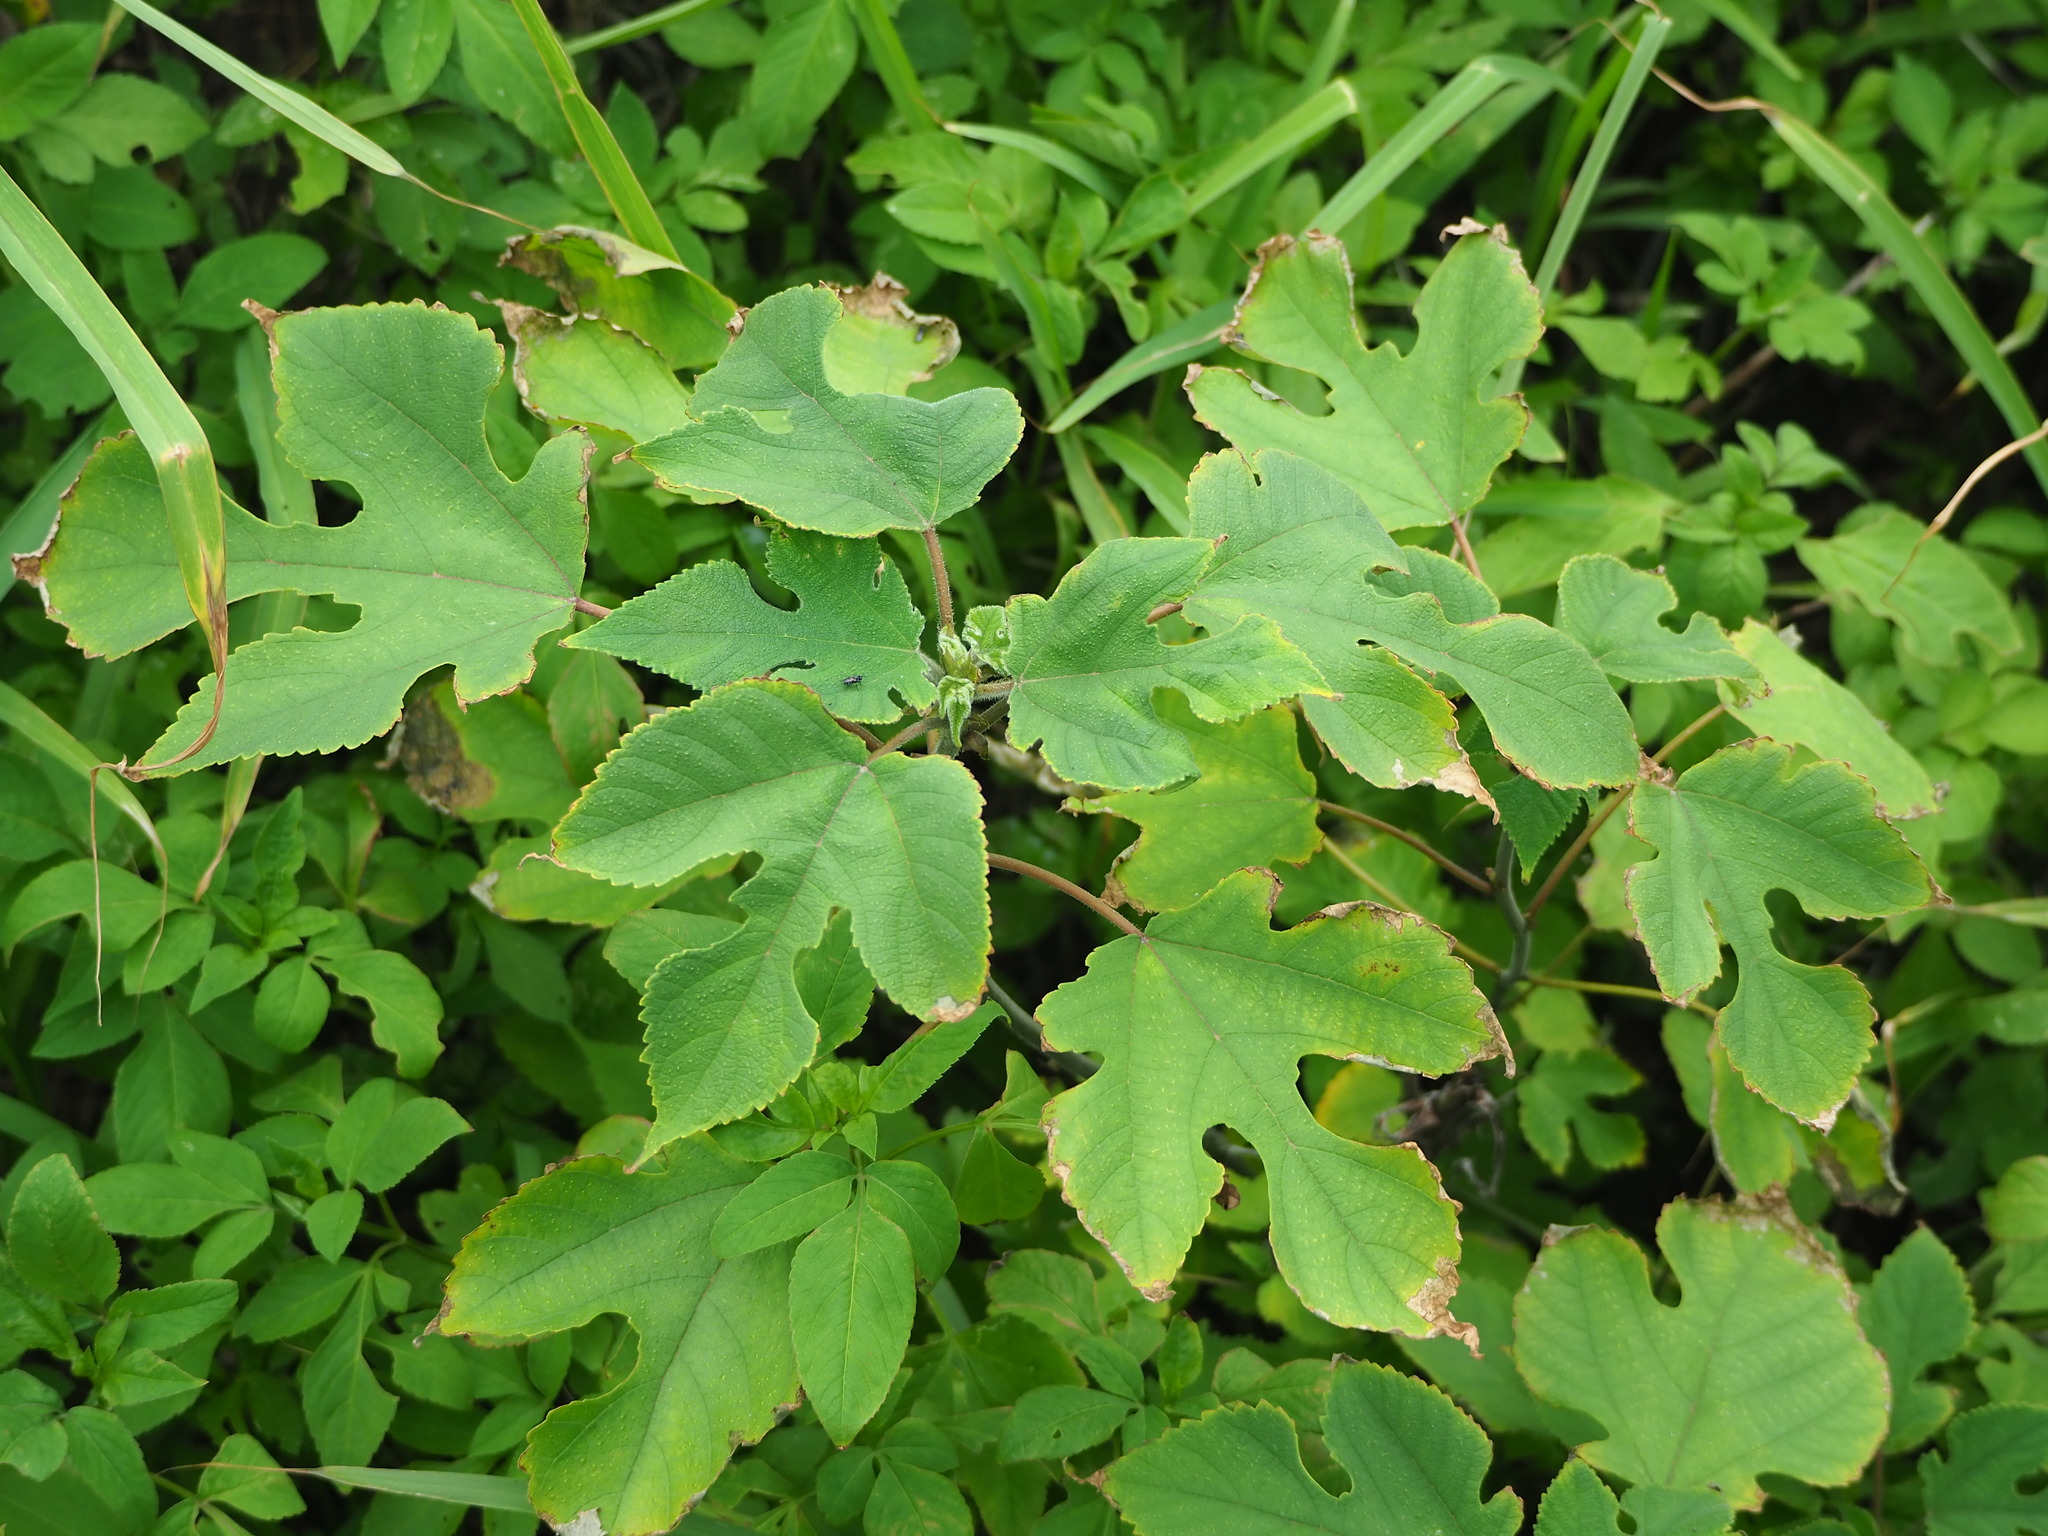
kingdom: Plantae
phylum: Tracheophyta
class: Magnoliopsida
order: Rosales
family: Moraceae
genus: Broussonetia
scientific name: Broussonetia papyrifera
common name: Paper mulberry
